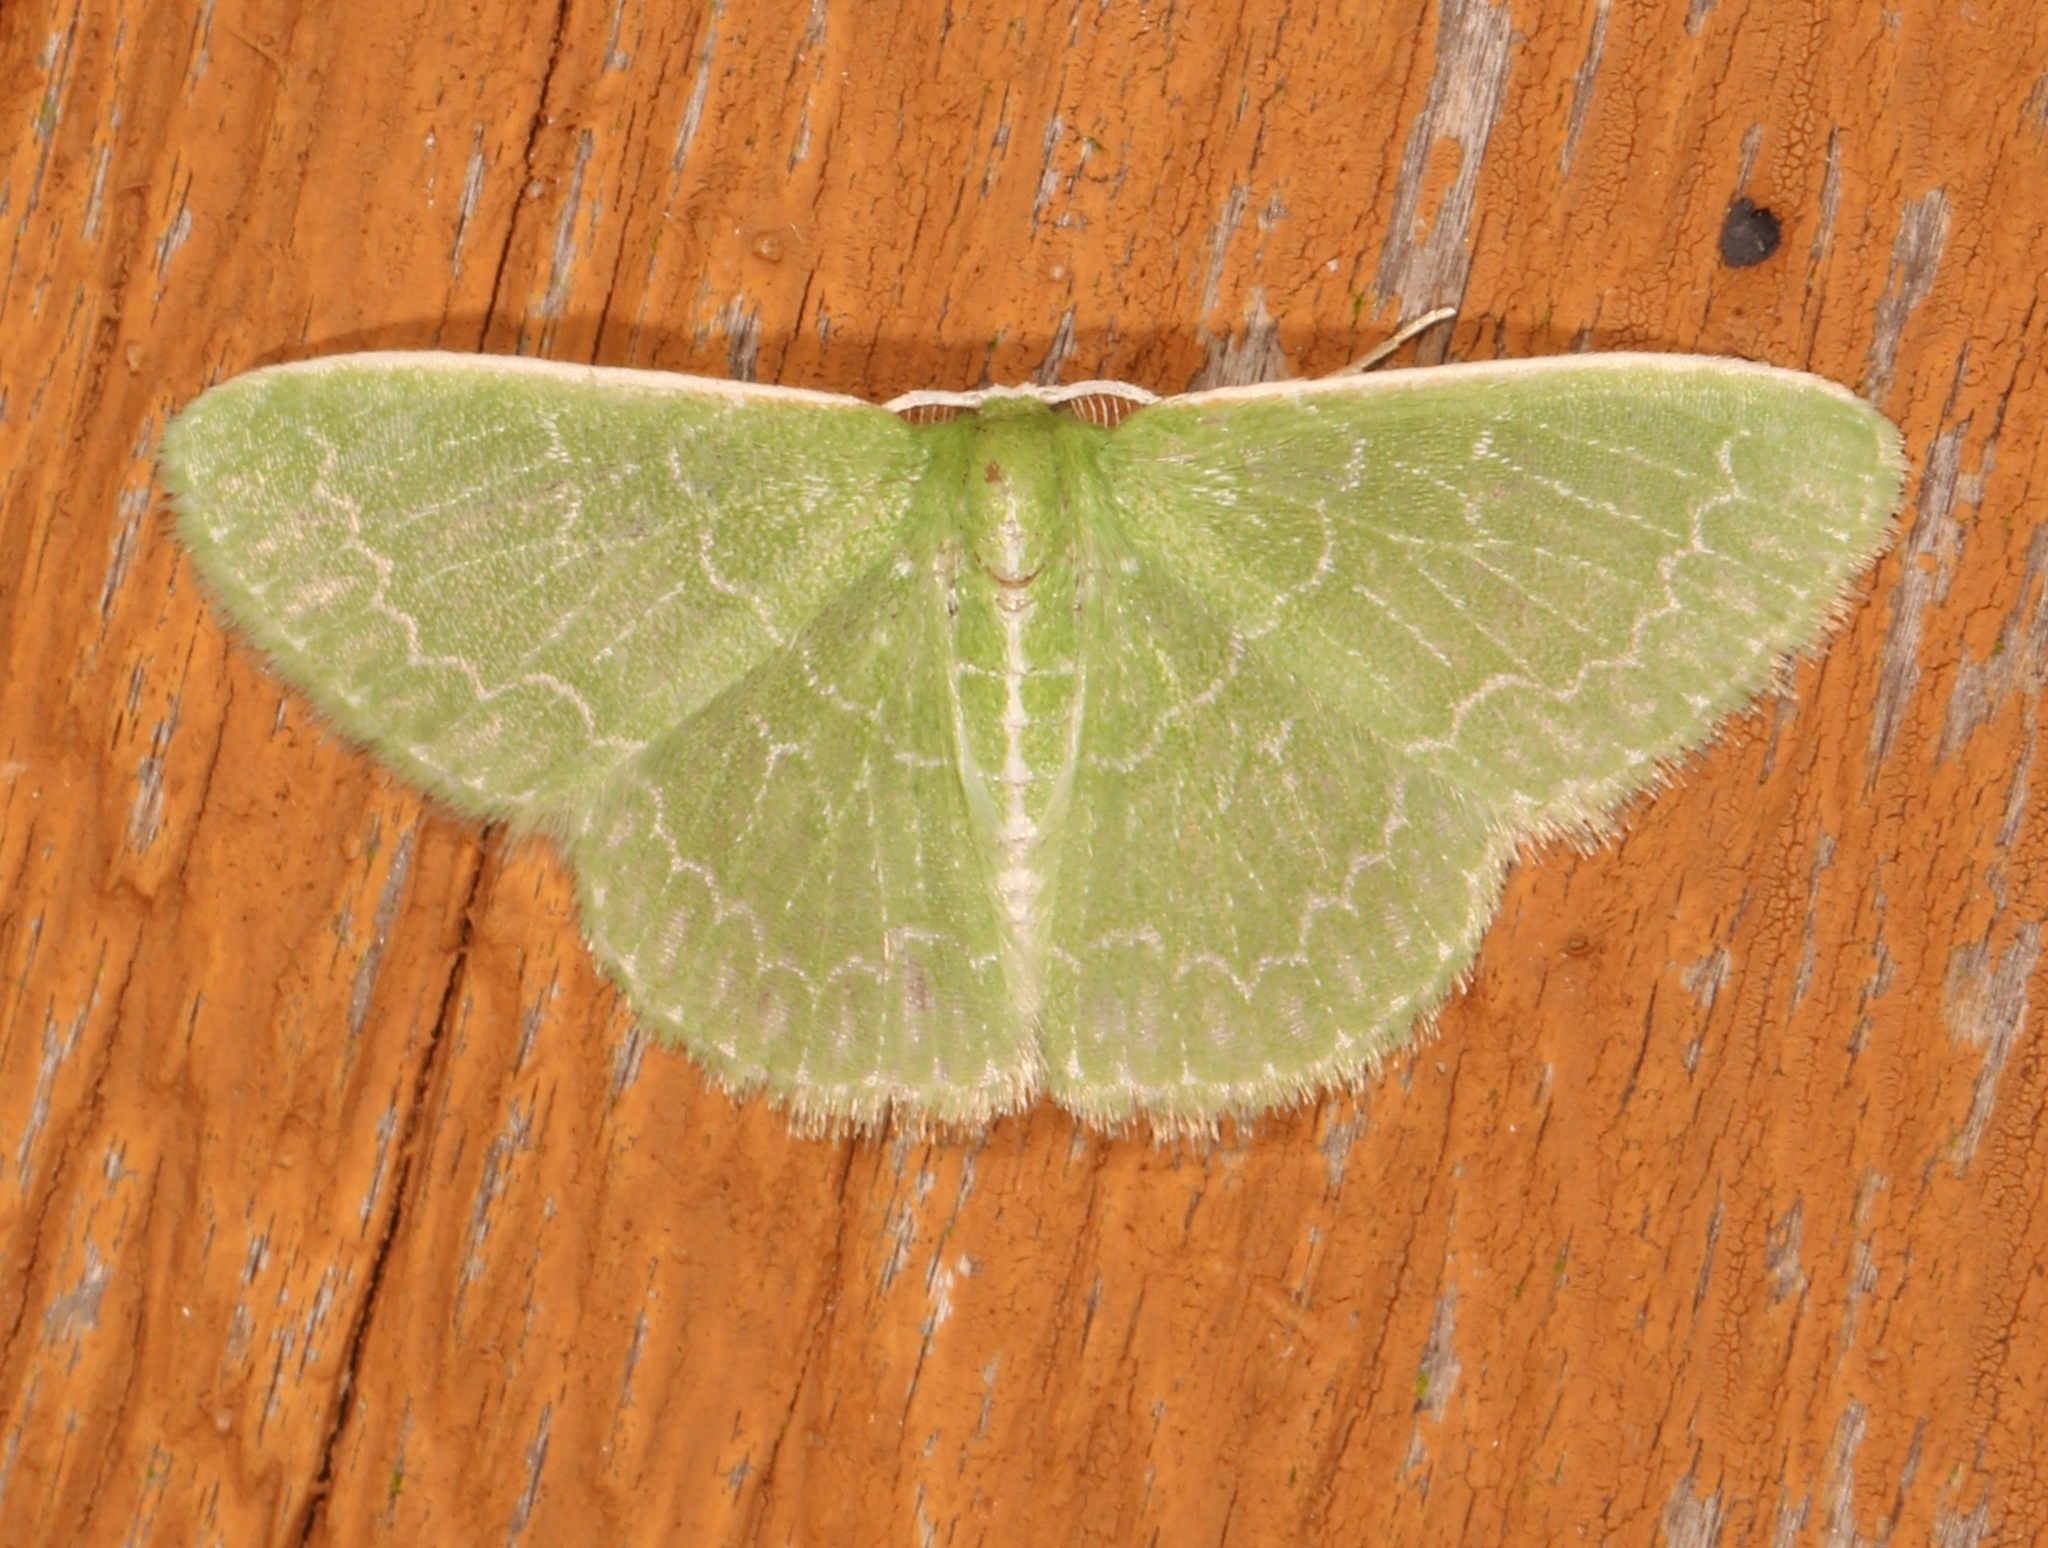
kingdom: Animalia
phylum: Arthropoda
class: Insecta
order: Lepidoptera
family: Geometridae
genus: Synchlora
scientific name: Synchlora frondaria
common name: Southern emerald
